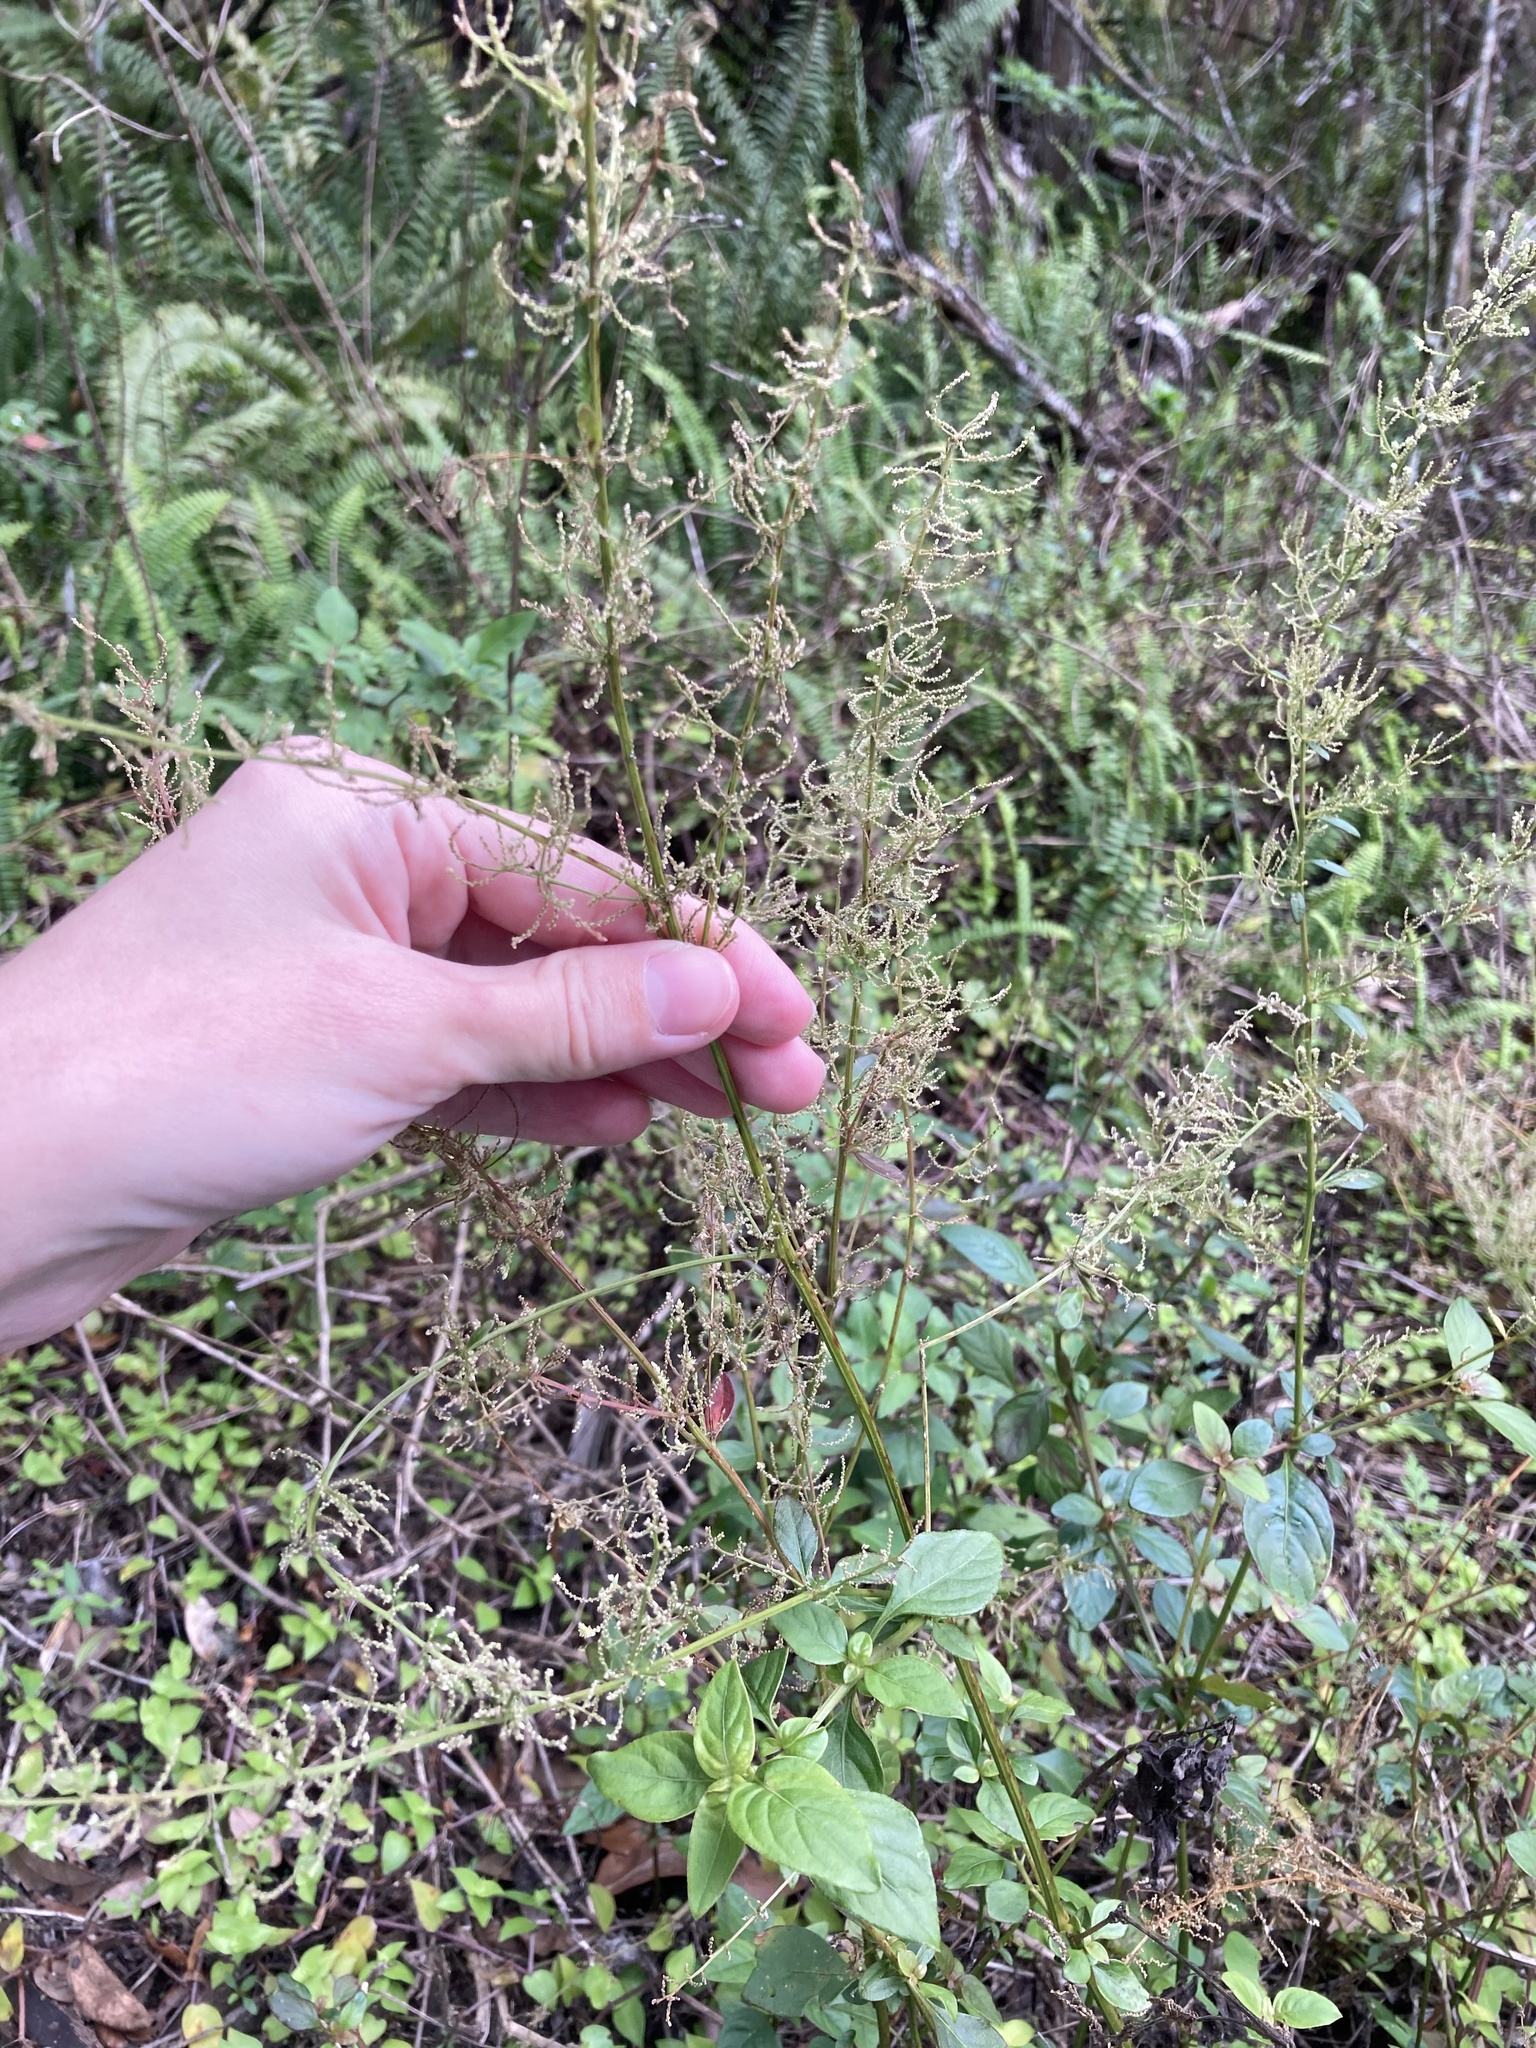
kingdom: Plantae
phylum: Tracheophyta
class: Magnoliopsida
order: Caryophyllales
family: Amaranthaceae
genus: Iresine
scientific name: Iresine diffusa
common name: Juba's-bush
